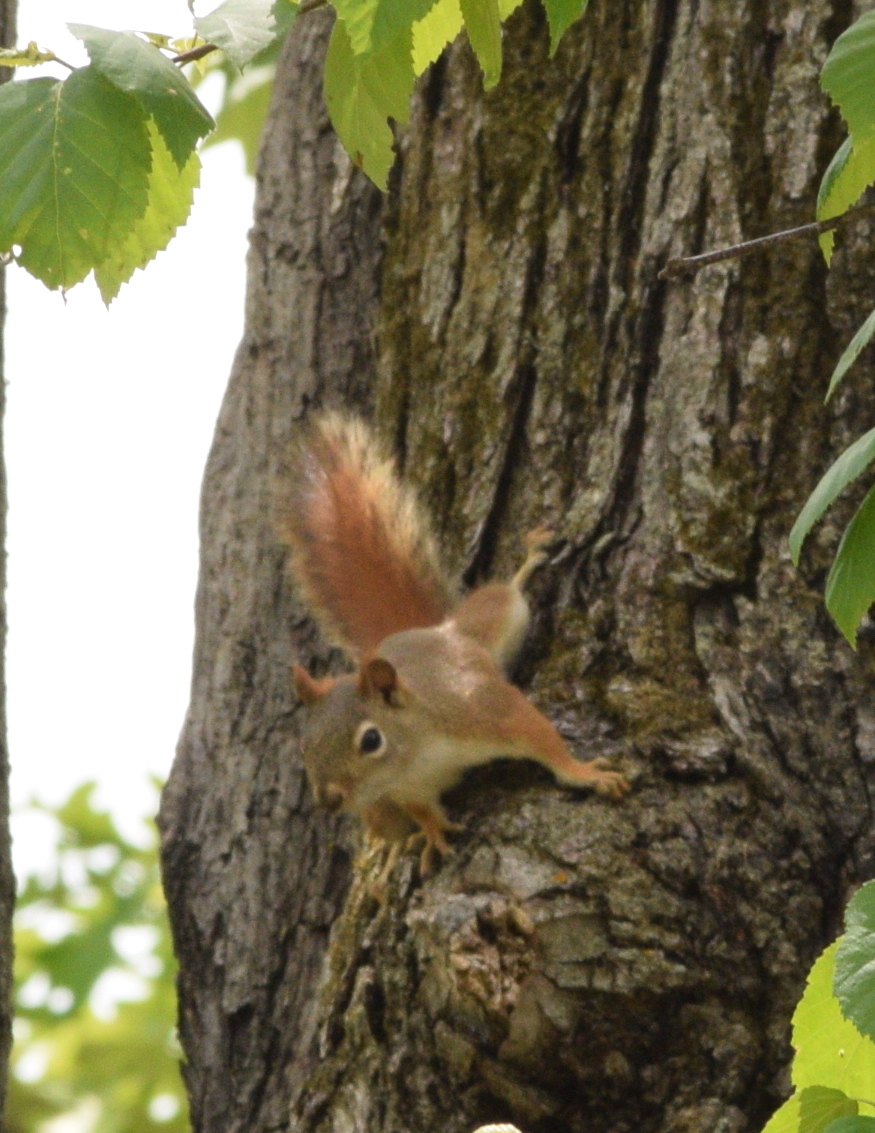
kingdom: Animalia
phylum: Chordata
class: Mammalia
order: Rodentia
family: Sciuridae
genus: Tamiasciurus
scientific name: Tamiasciurus hudsonicus
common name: Red squirrel
